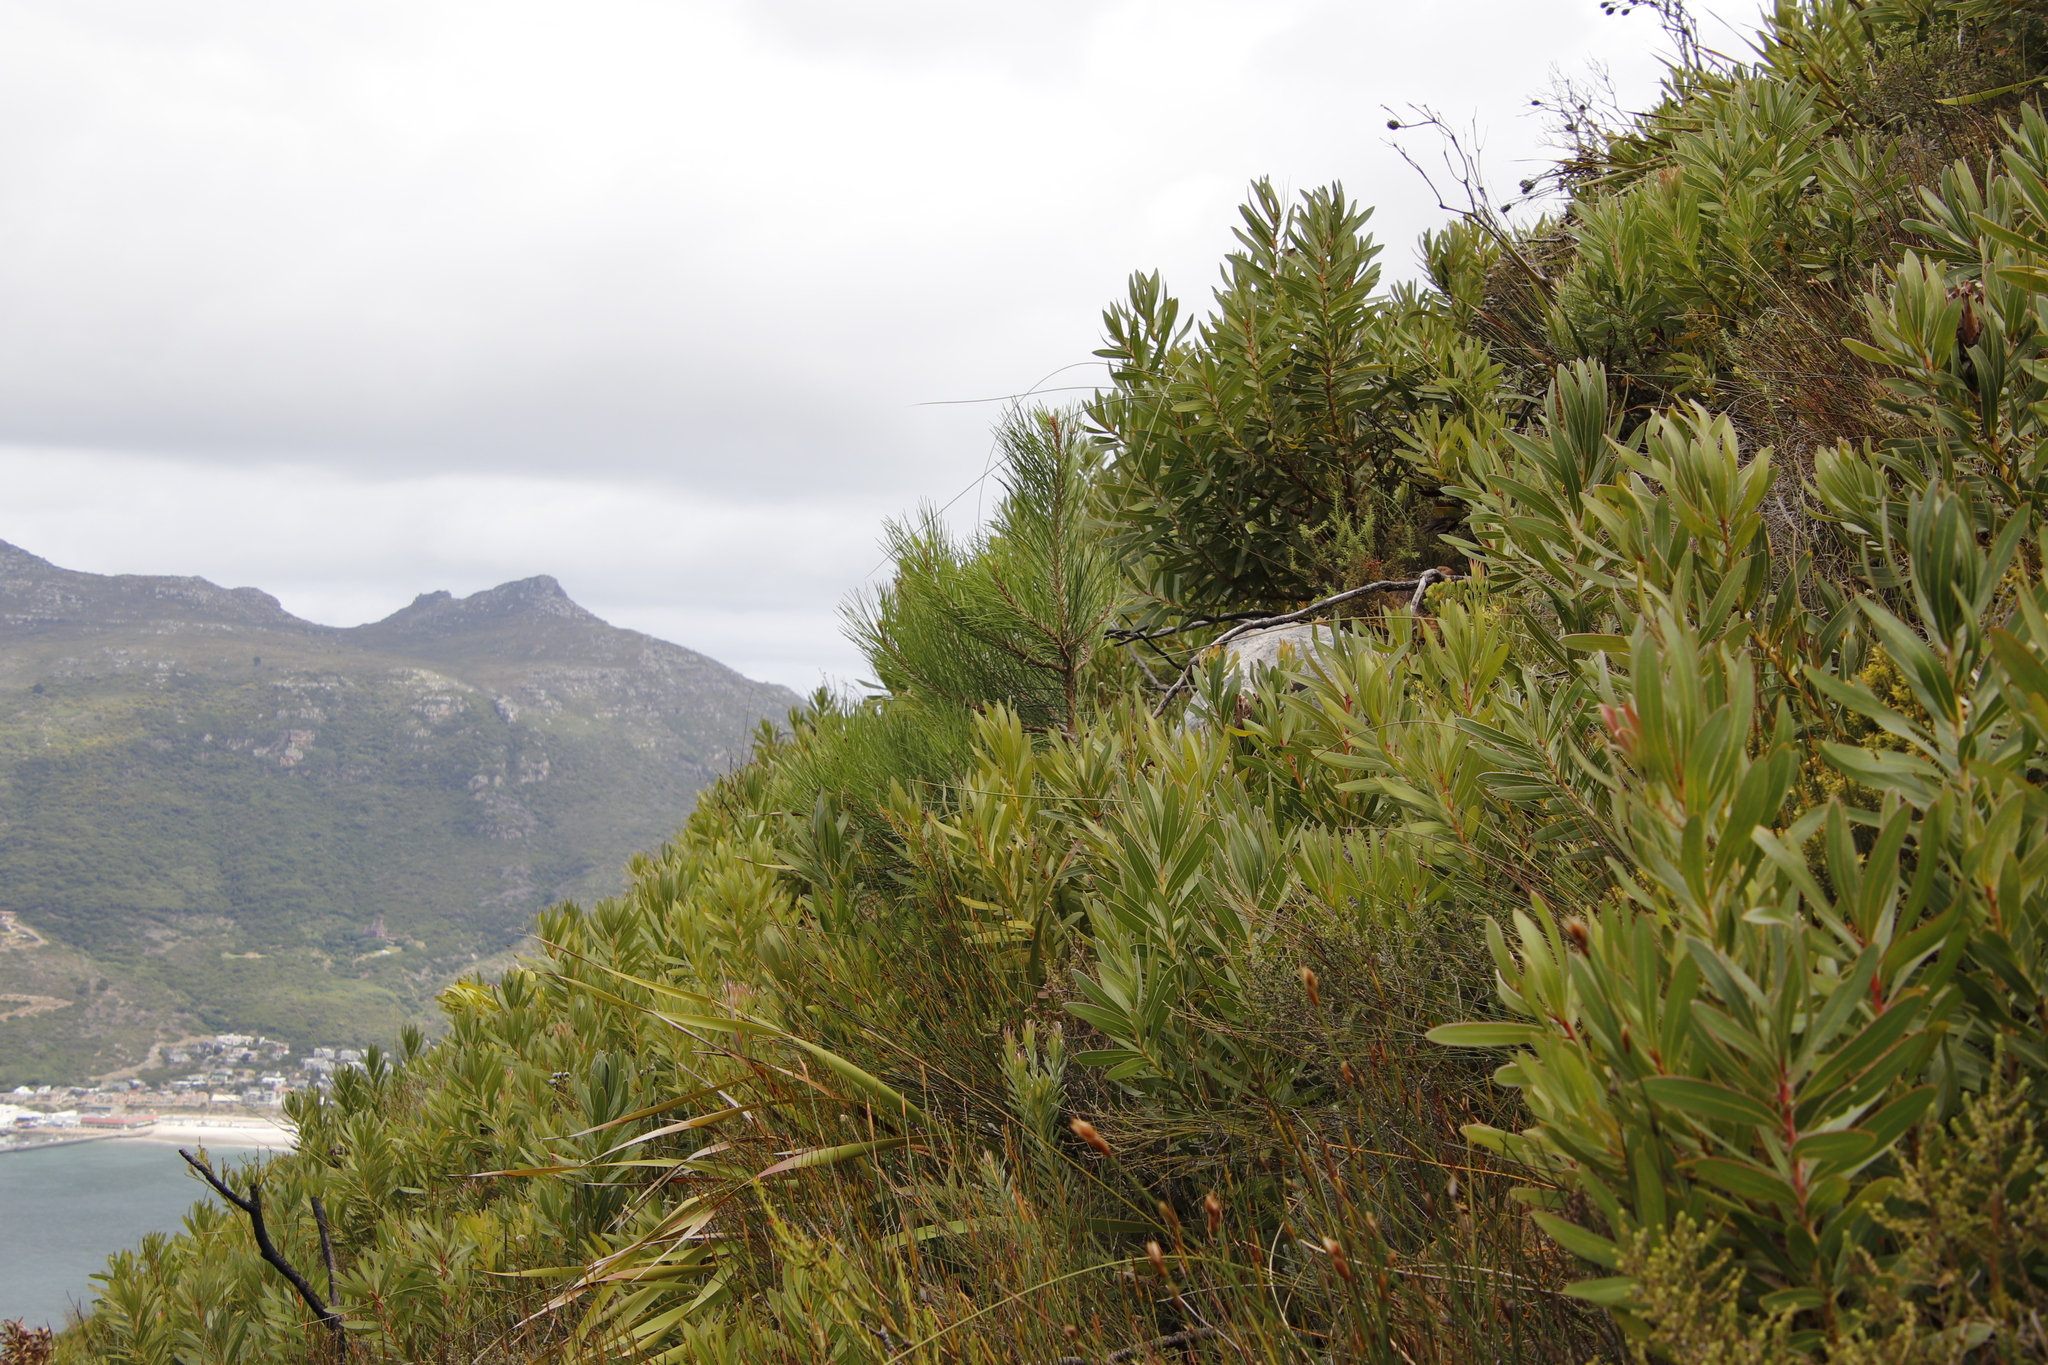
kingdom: Plantae
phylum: Tracheophyta
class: Pinopsida
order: Pinales
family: Pinaceae
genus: Pinus
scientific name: Pinus pinaster
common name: Maritime pine
